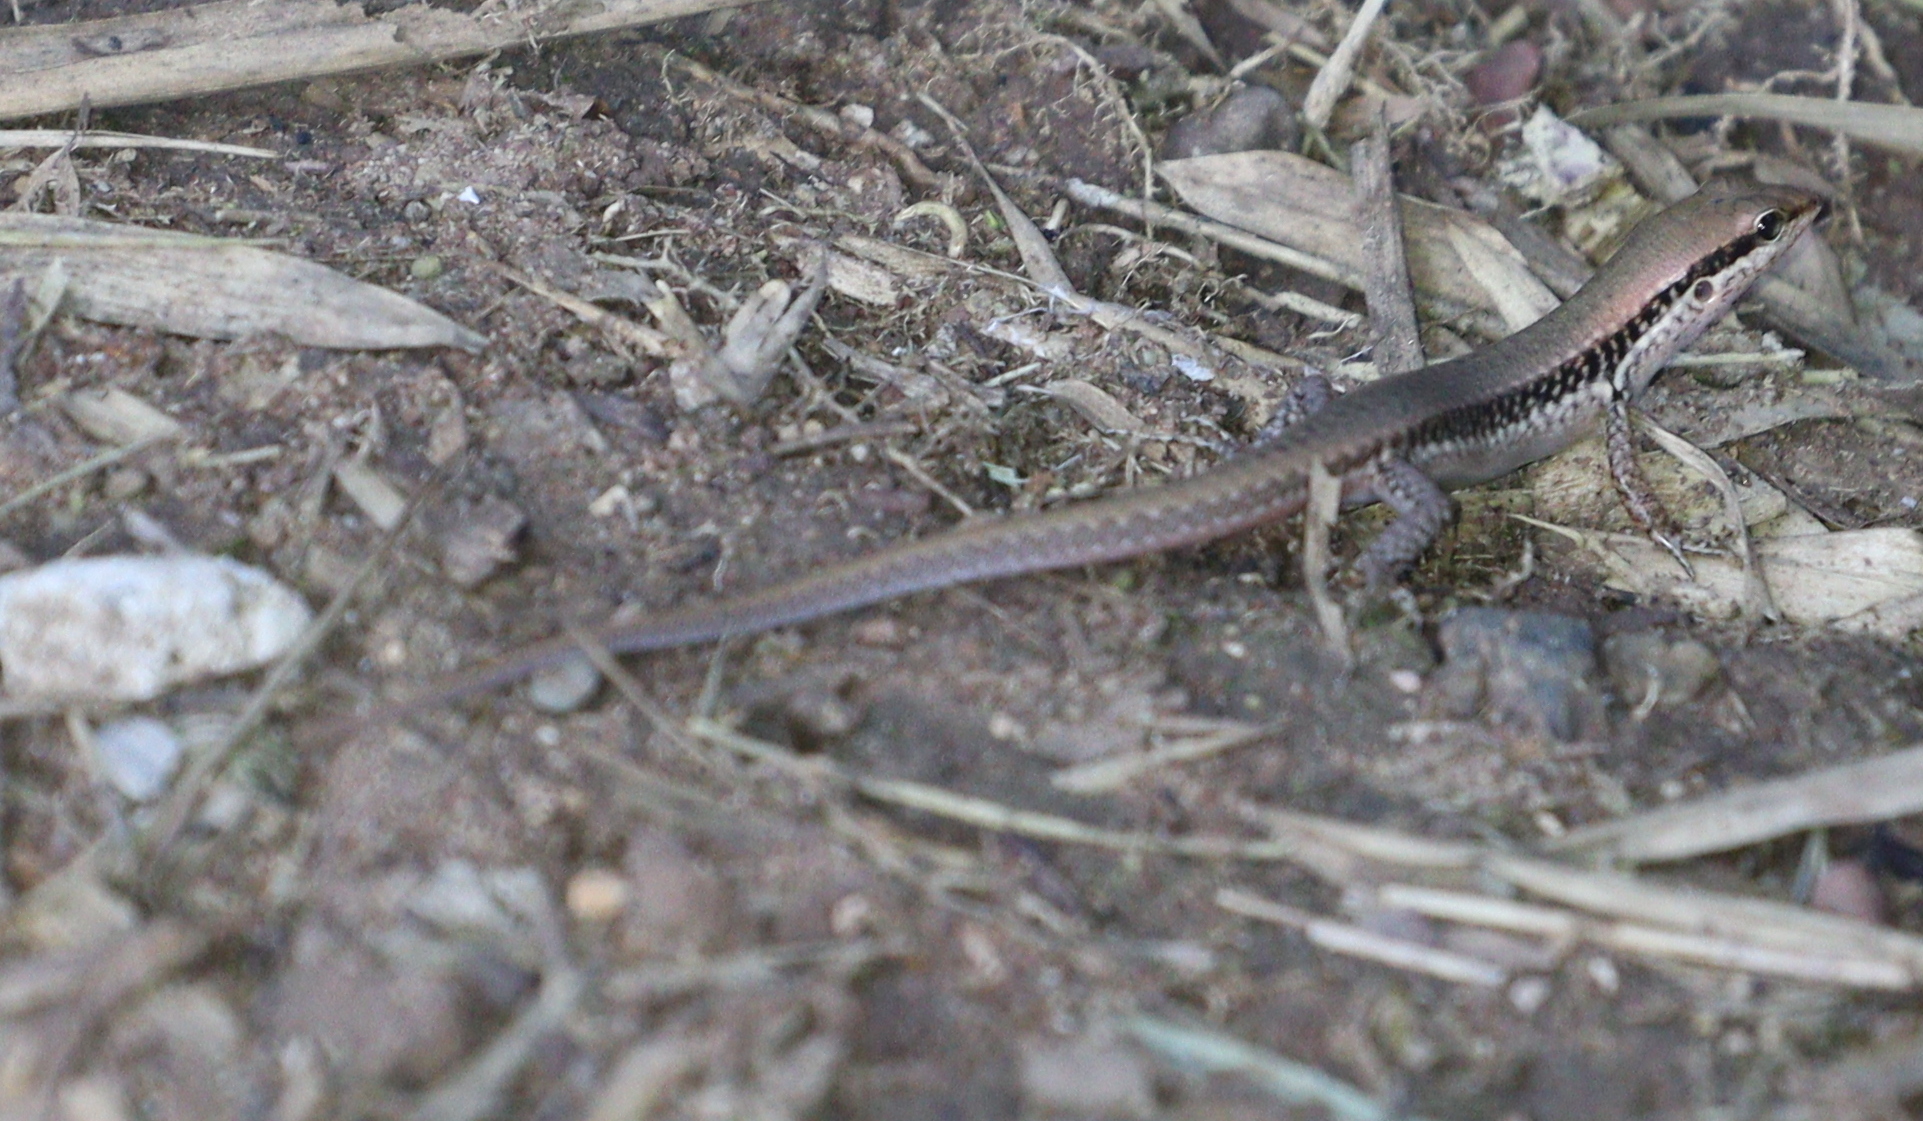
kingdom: Animalia
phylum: Chordata
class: Squamata
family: Scincidae
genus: Sphenomorphus
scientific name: Sphenomorphus maculatus
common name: Maculated forest skink
